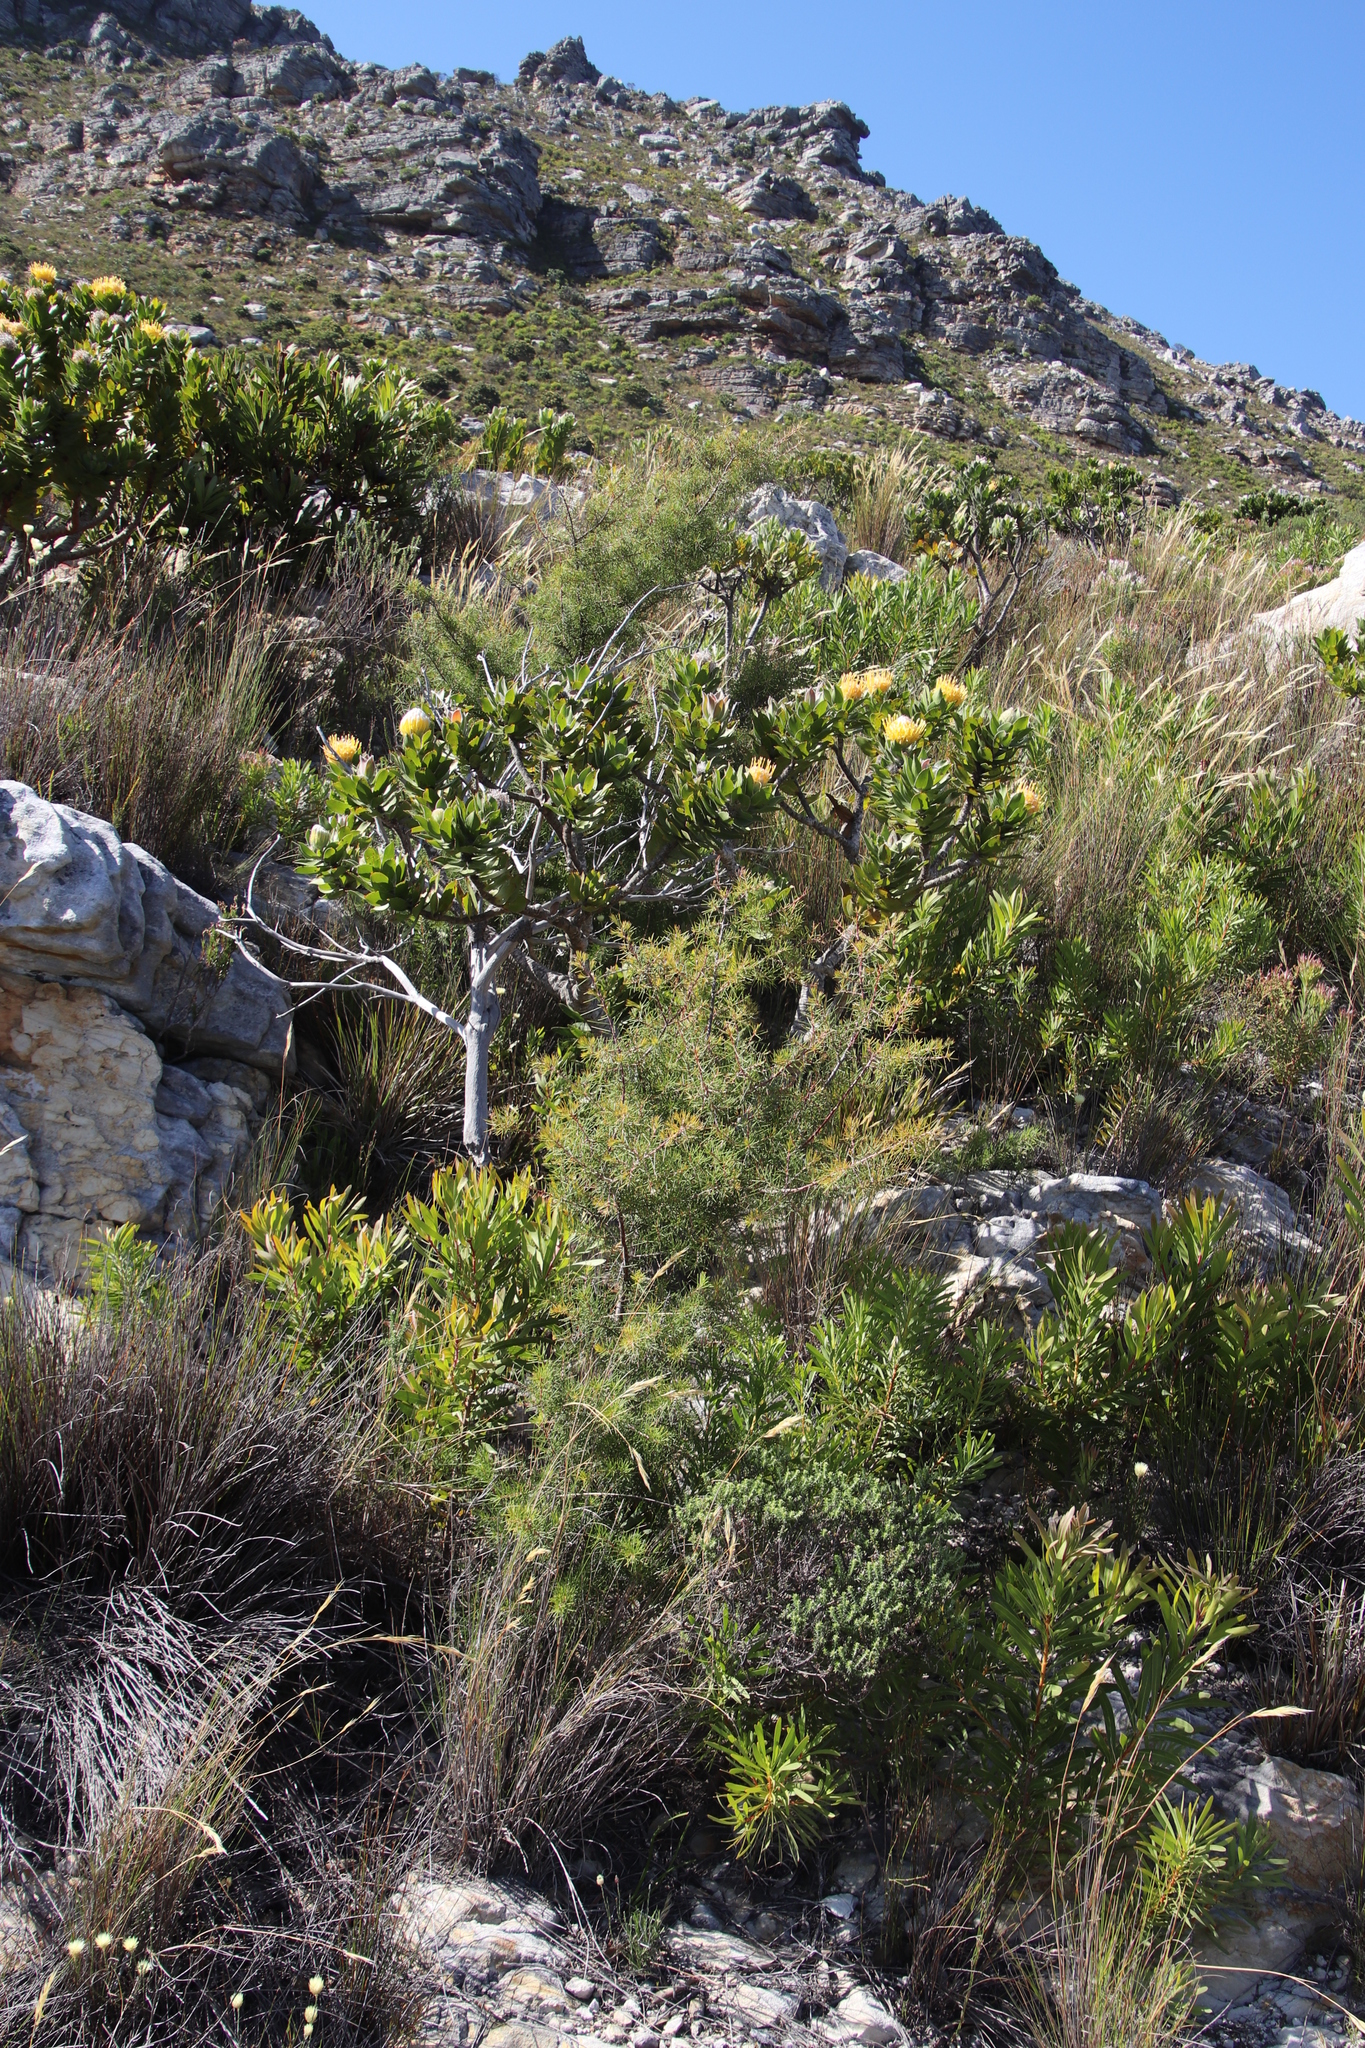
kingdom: Plantae
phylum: Tracheophyta
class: Magnoliopsida
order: Proteales
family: Proteaceae
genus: Hakea
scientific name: Hakea sericea
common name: Needle bush
